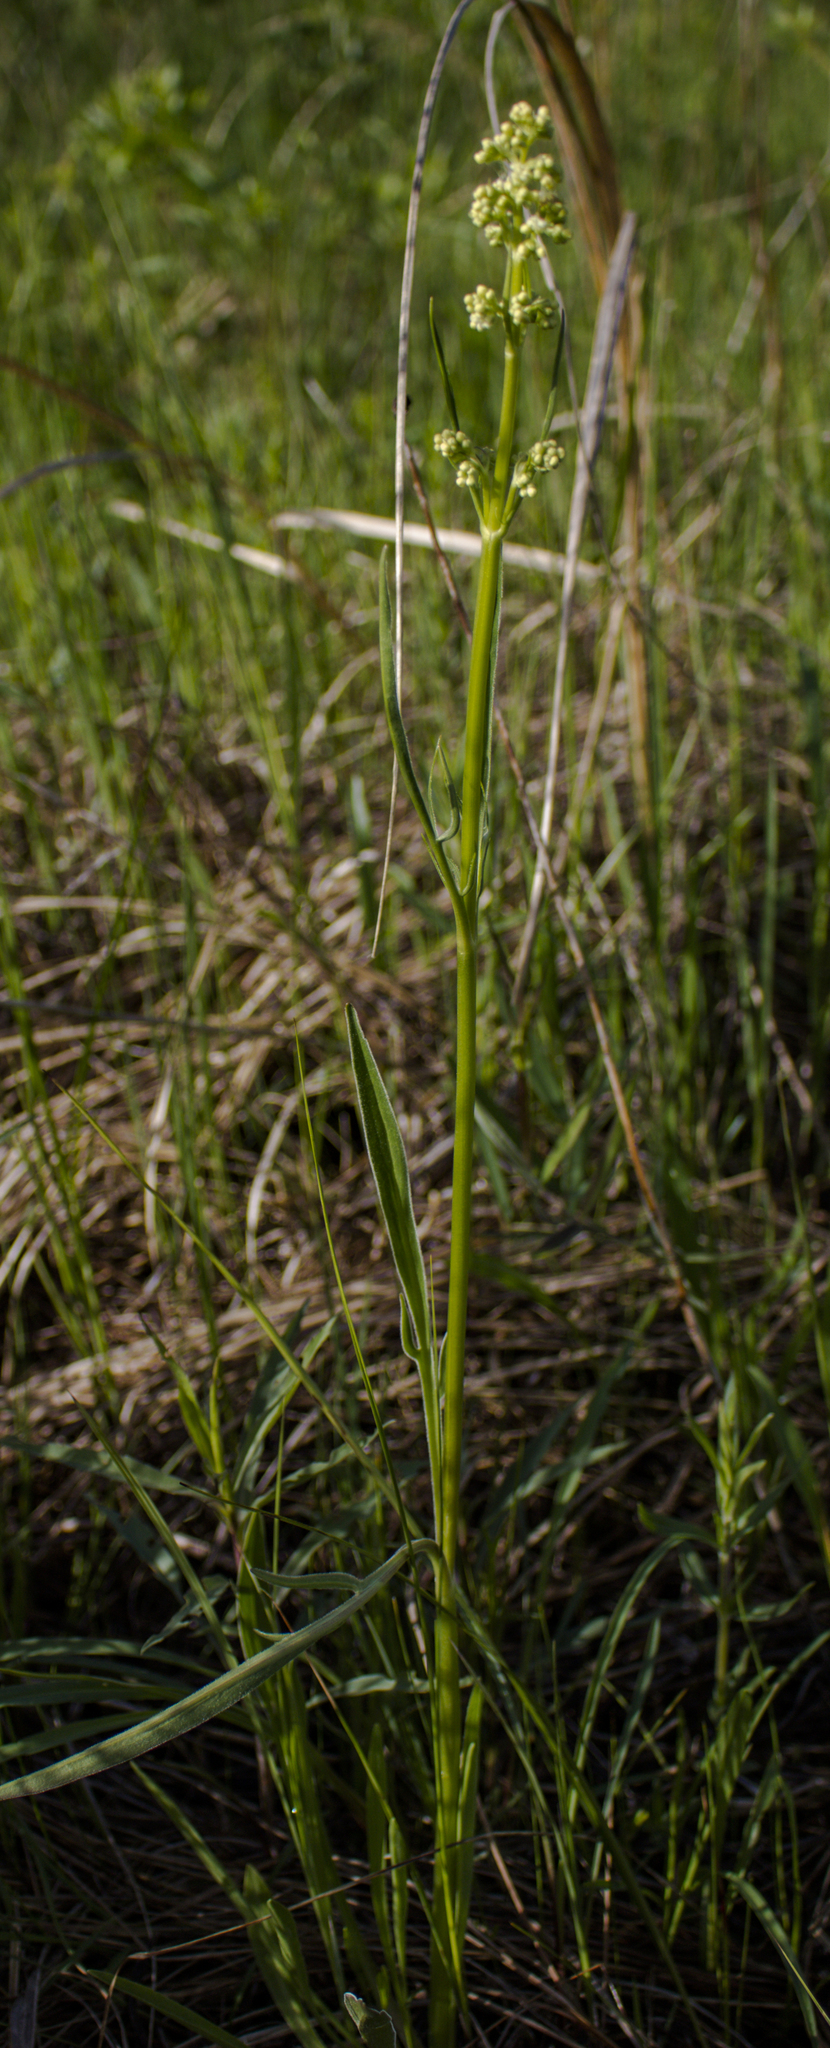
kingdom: Plantae
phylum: Tracheophyta
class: Magnoliopsida
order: Dipsacales
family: Caprifoliaceae
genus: Valeriana
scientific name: Valeriana edulis
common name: Taproot valerian
